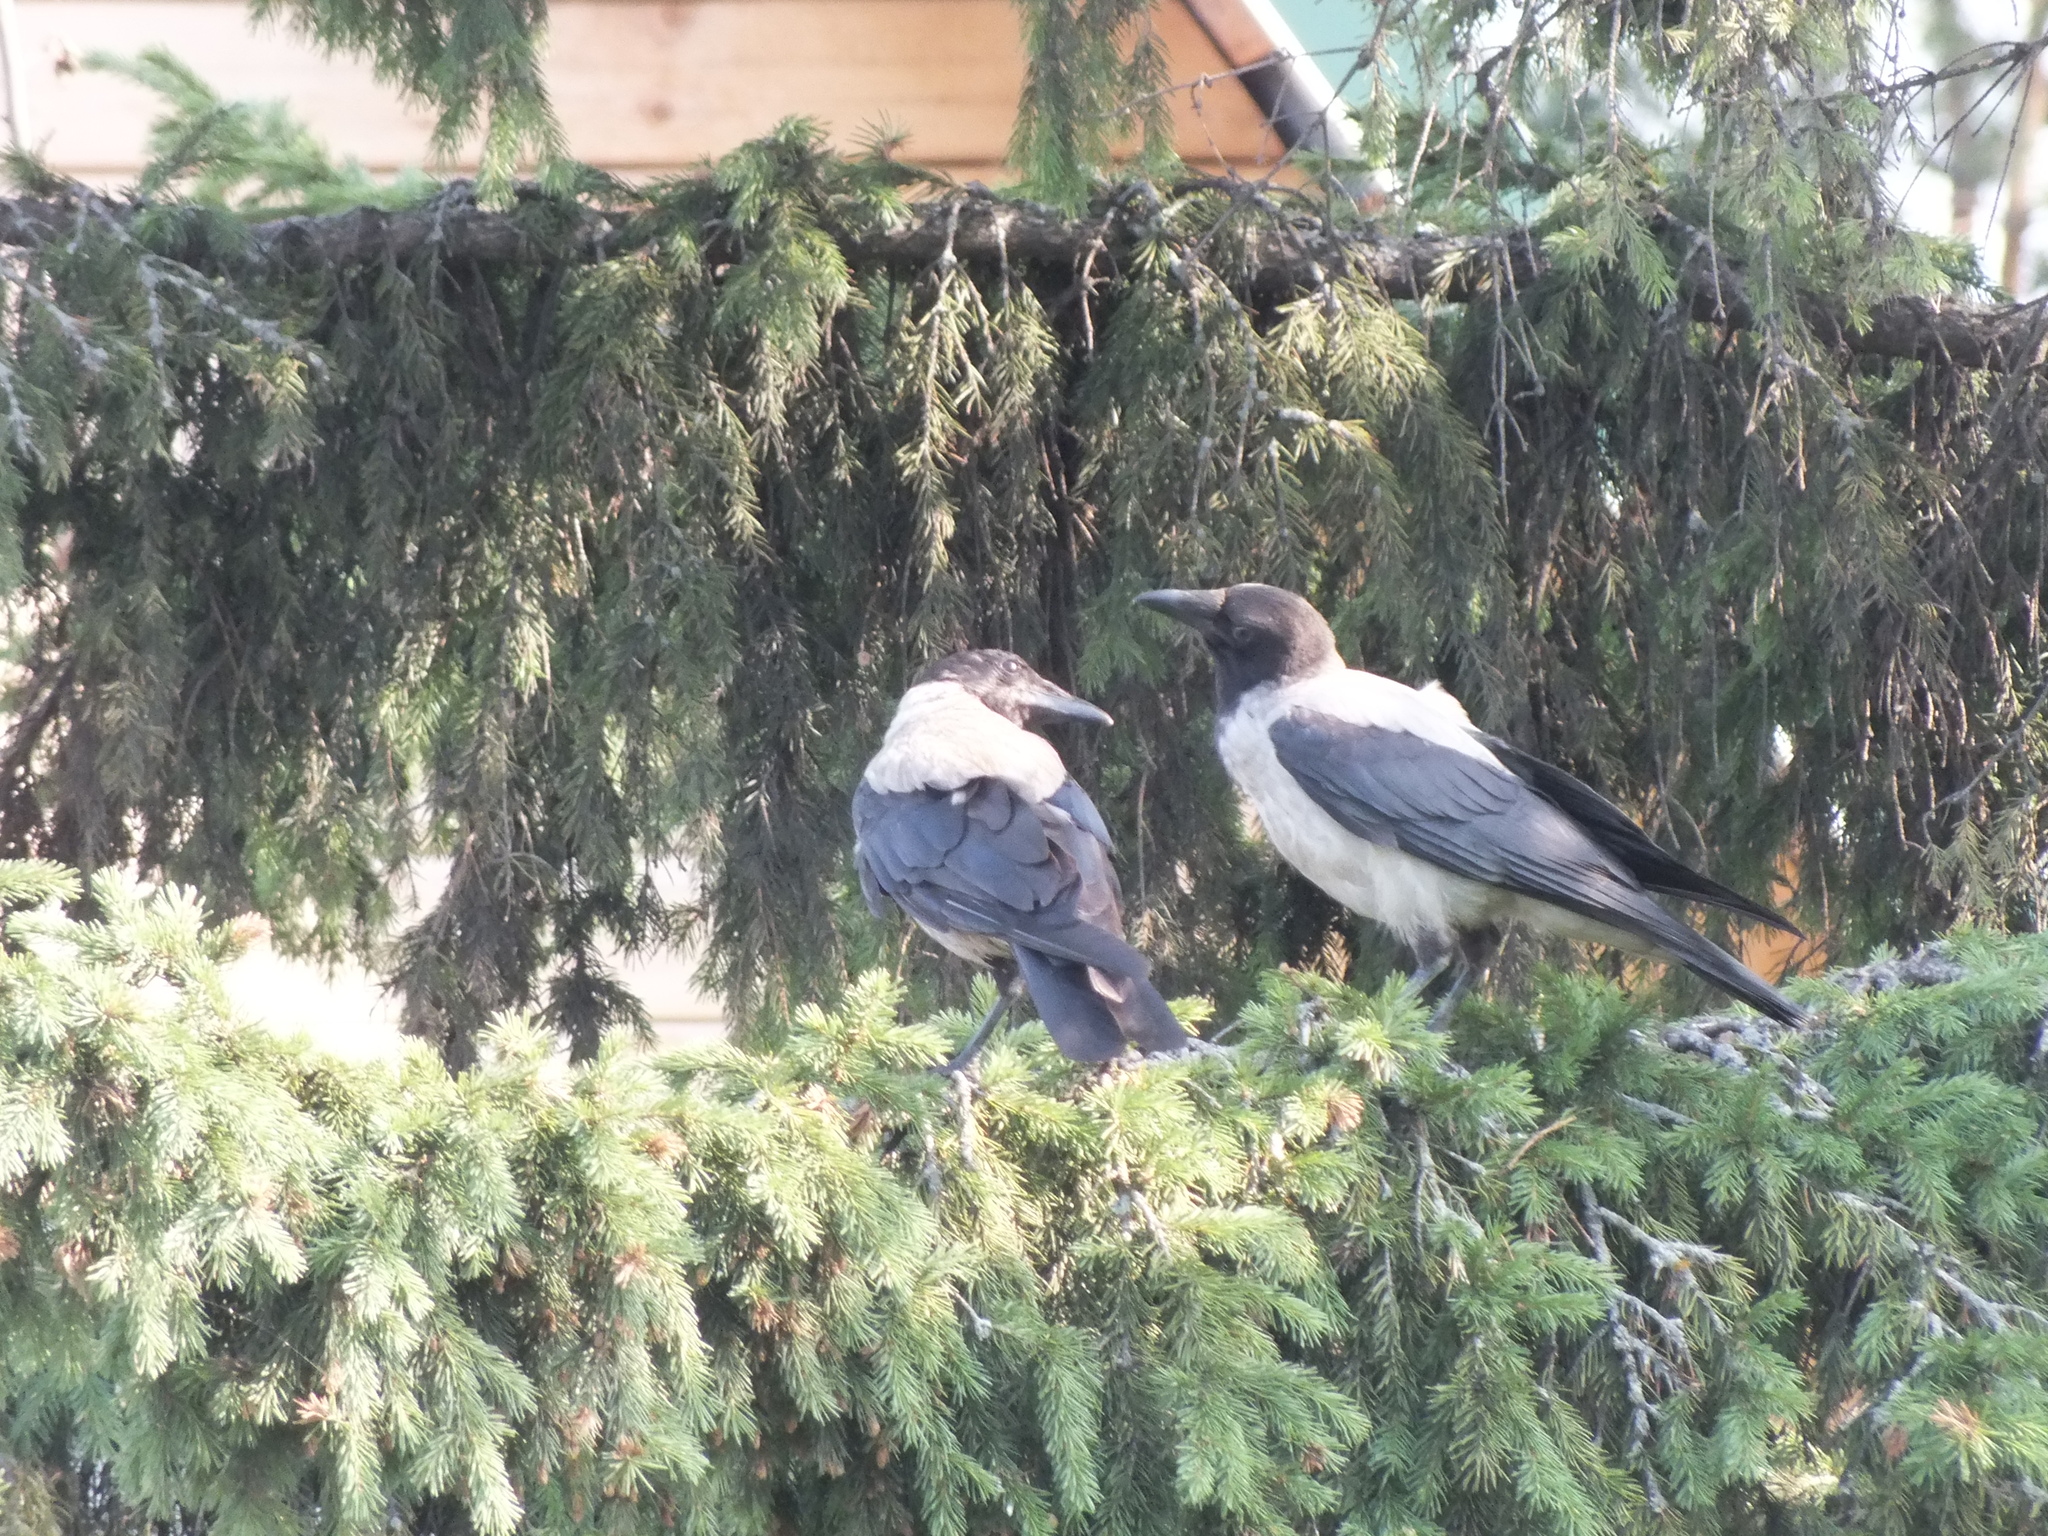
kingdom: Animalia
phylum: Chordata
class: Aves
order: Passeriformes
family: Corvidae
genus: Corvus
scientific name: Corvus cornix
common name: Hooded crow
